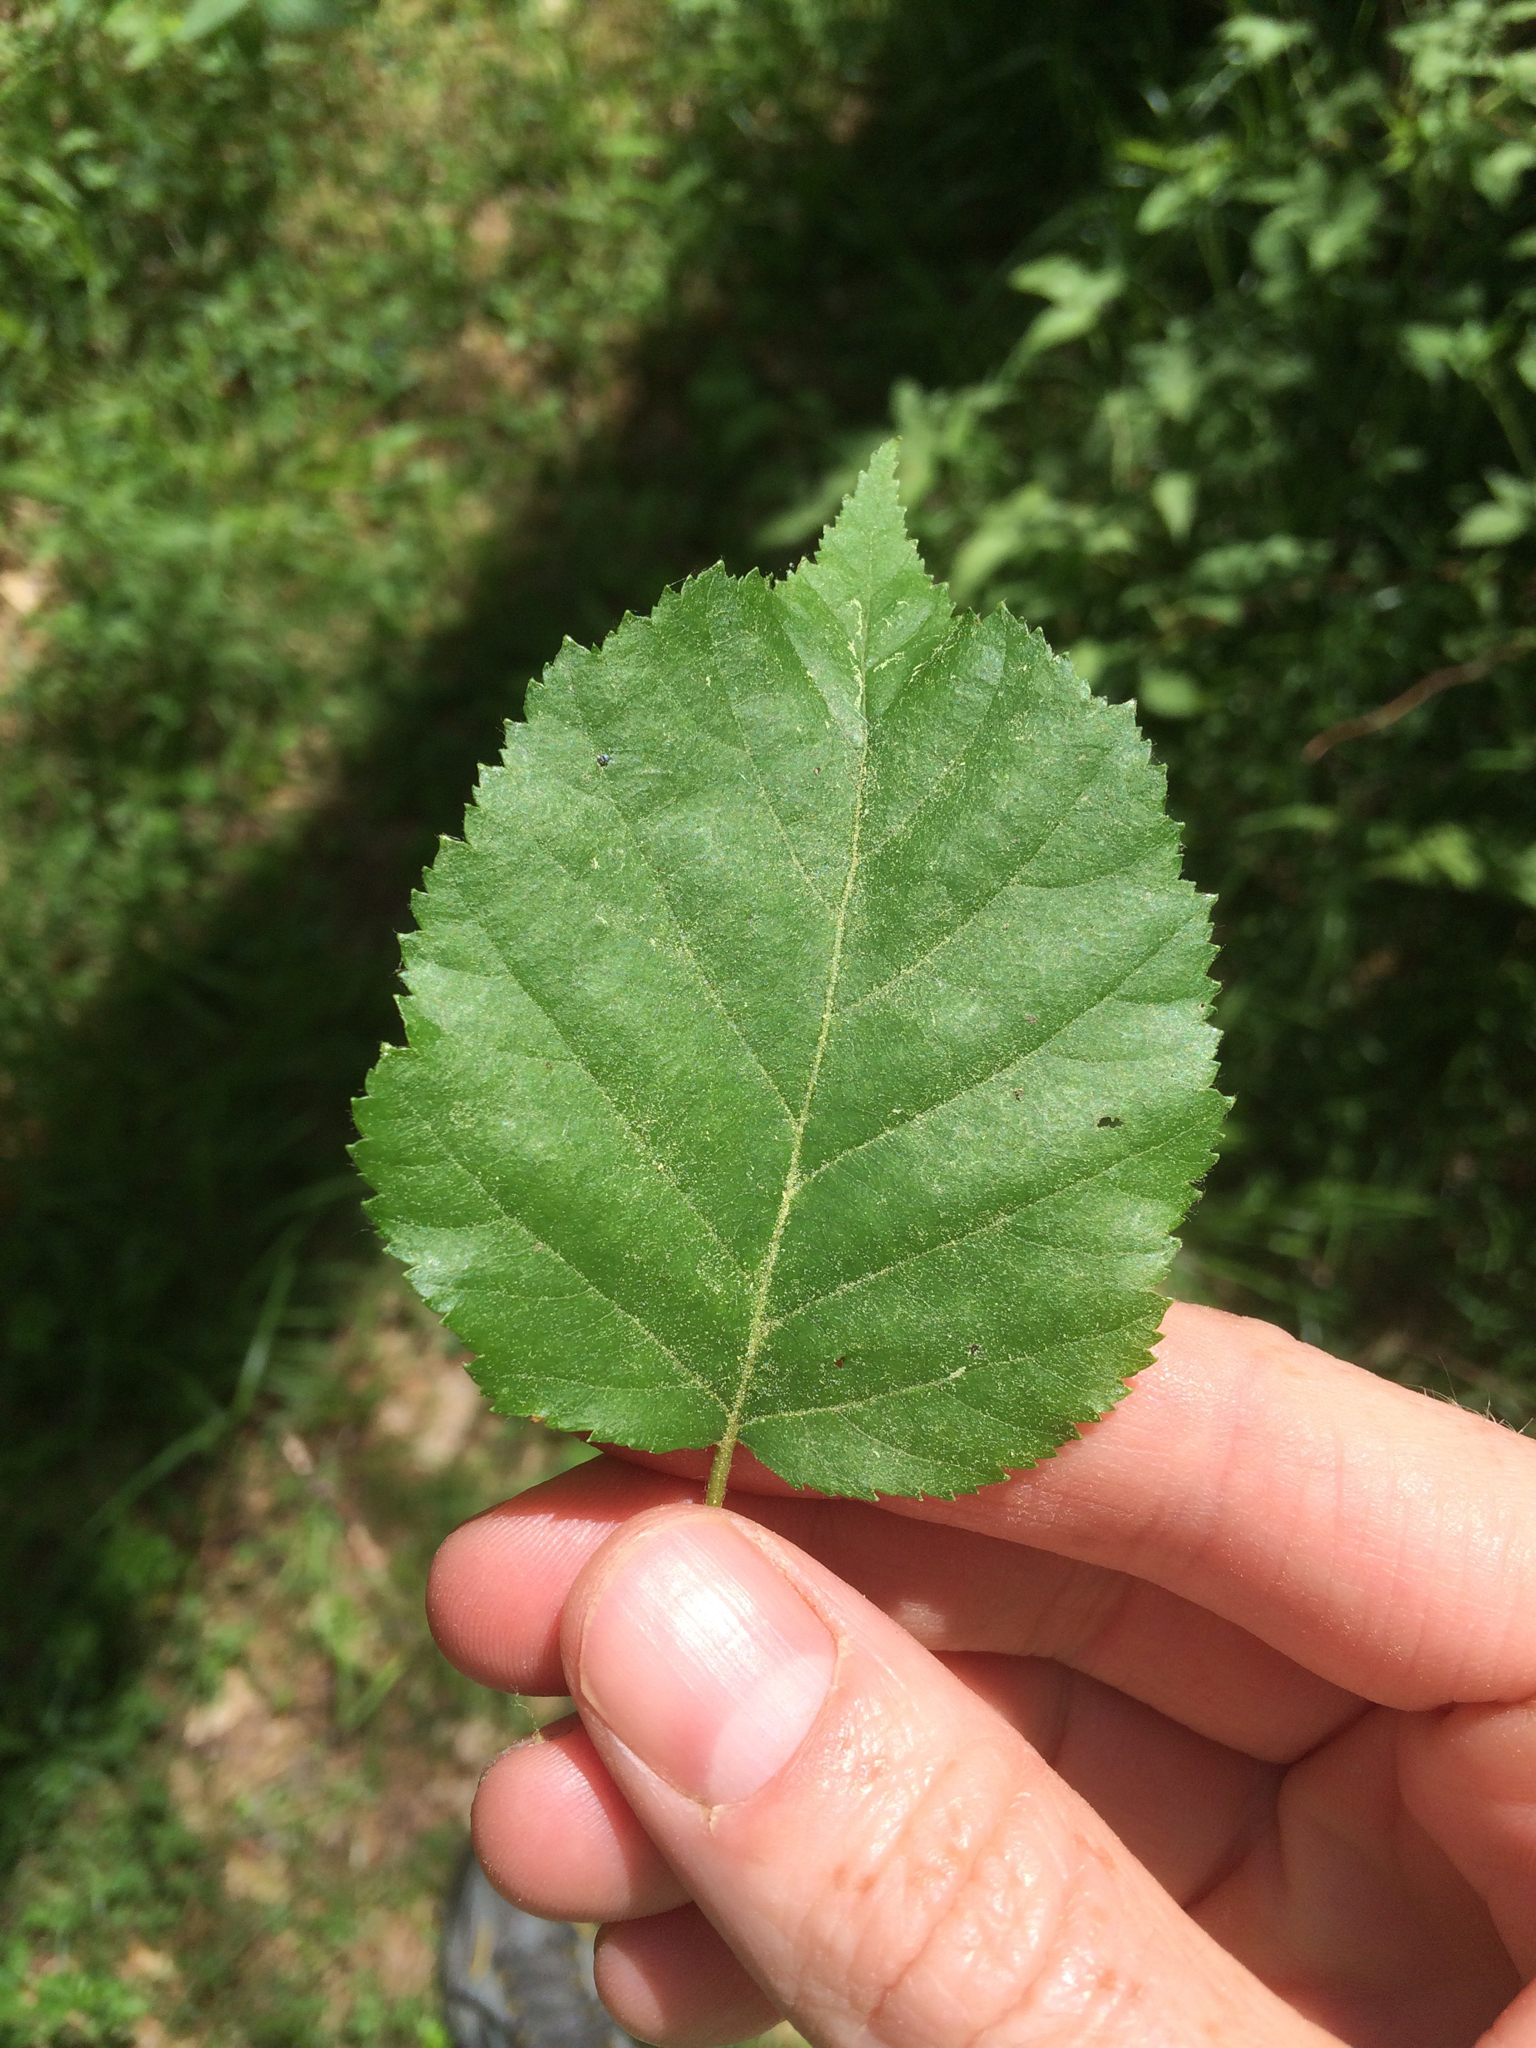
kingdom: Plantae
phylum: Tracheophyta
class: Magnoliopsida
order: Fagales
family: Betulaceae
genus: Betula
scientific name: Betula cordifolia
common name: Mountain white birch
